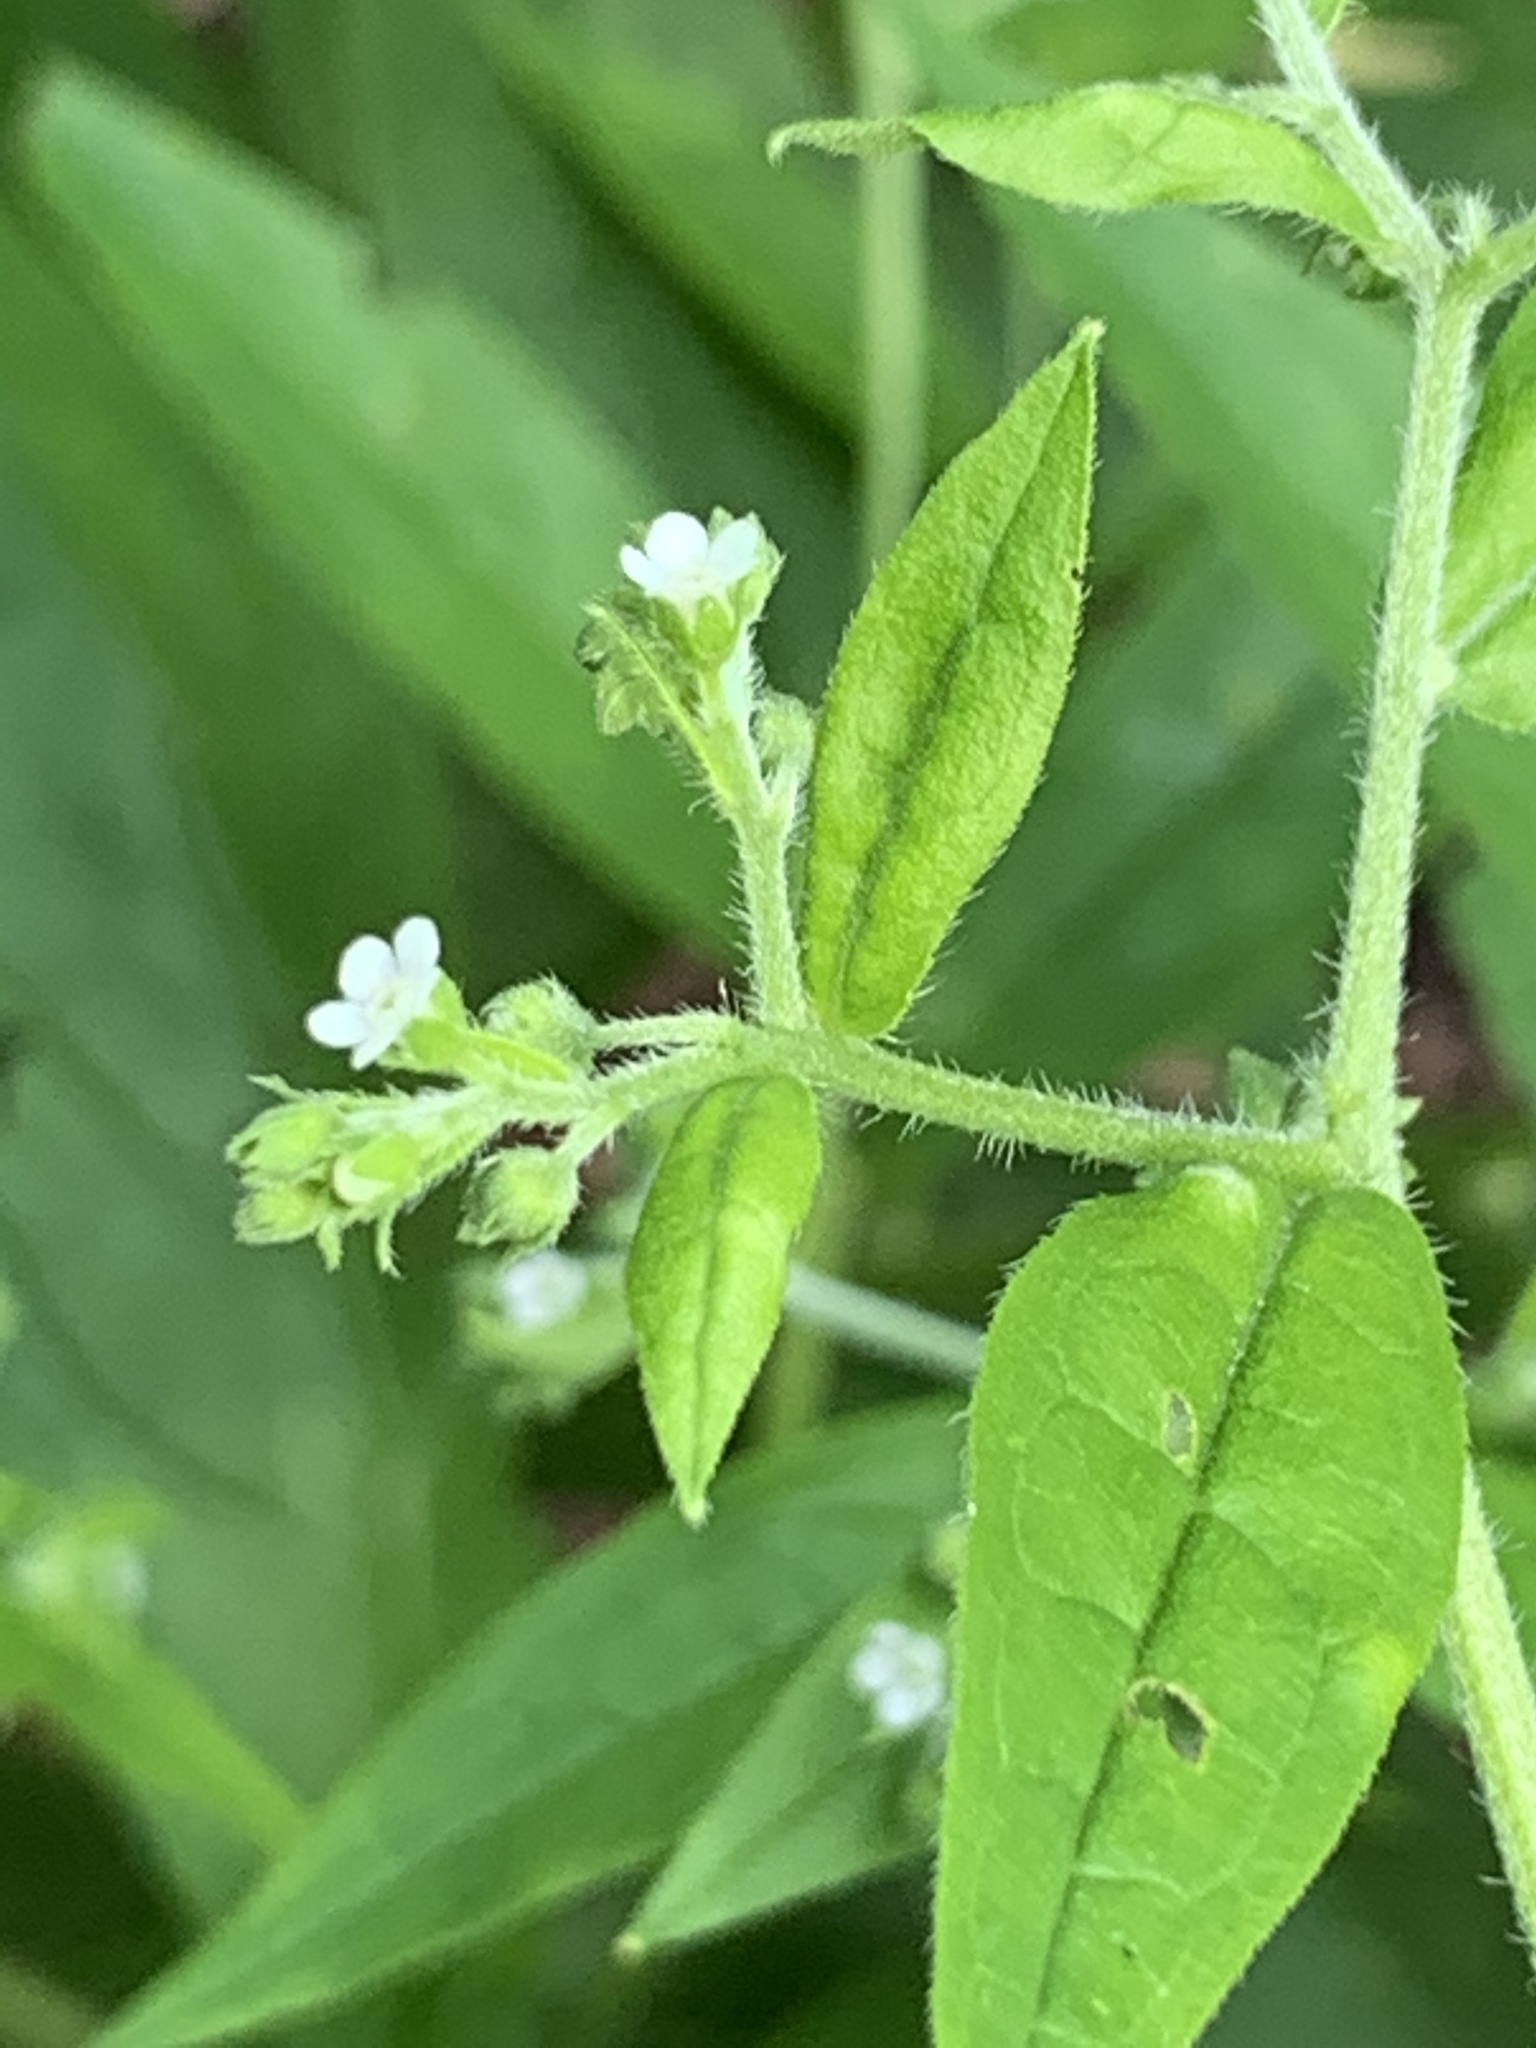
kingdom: Plantae
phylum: Tracheophyta
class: Magnoliopsida
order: Boraginales
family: Boraginaceae
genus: Hackelia
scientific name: Hackelia virginiana
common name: Beggar's-lice
